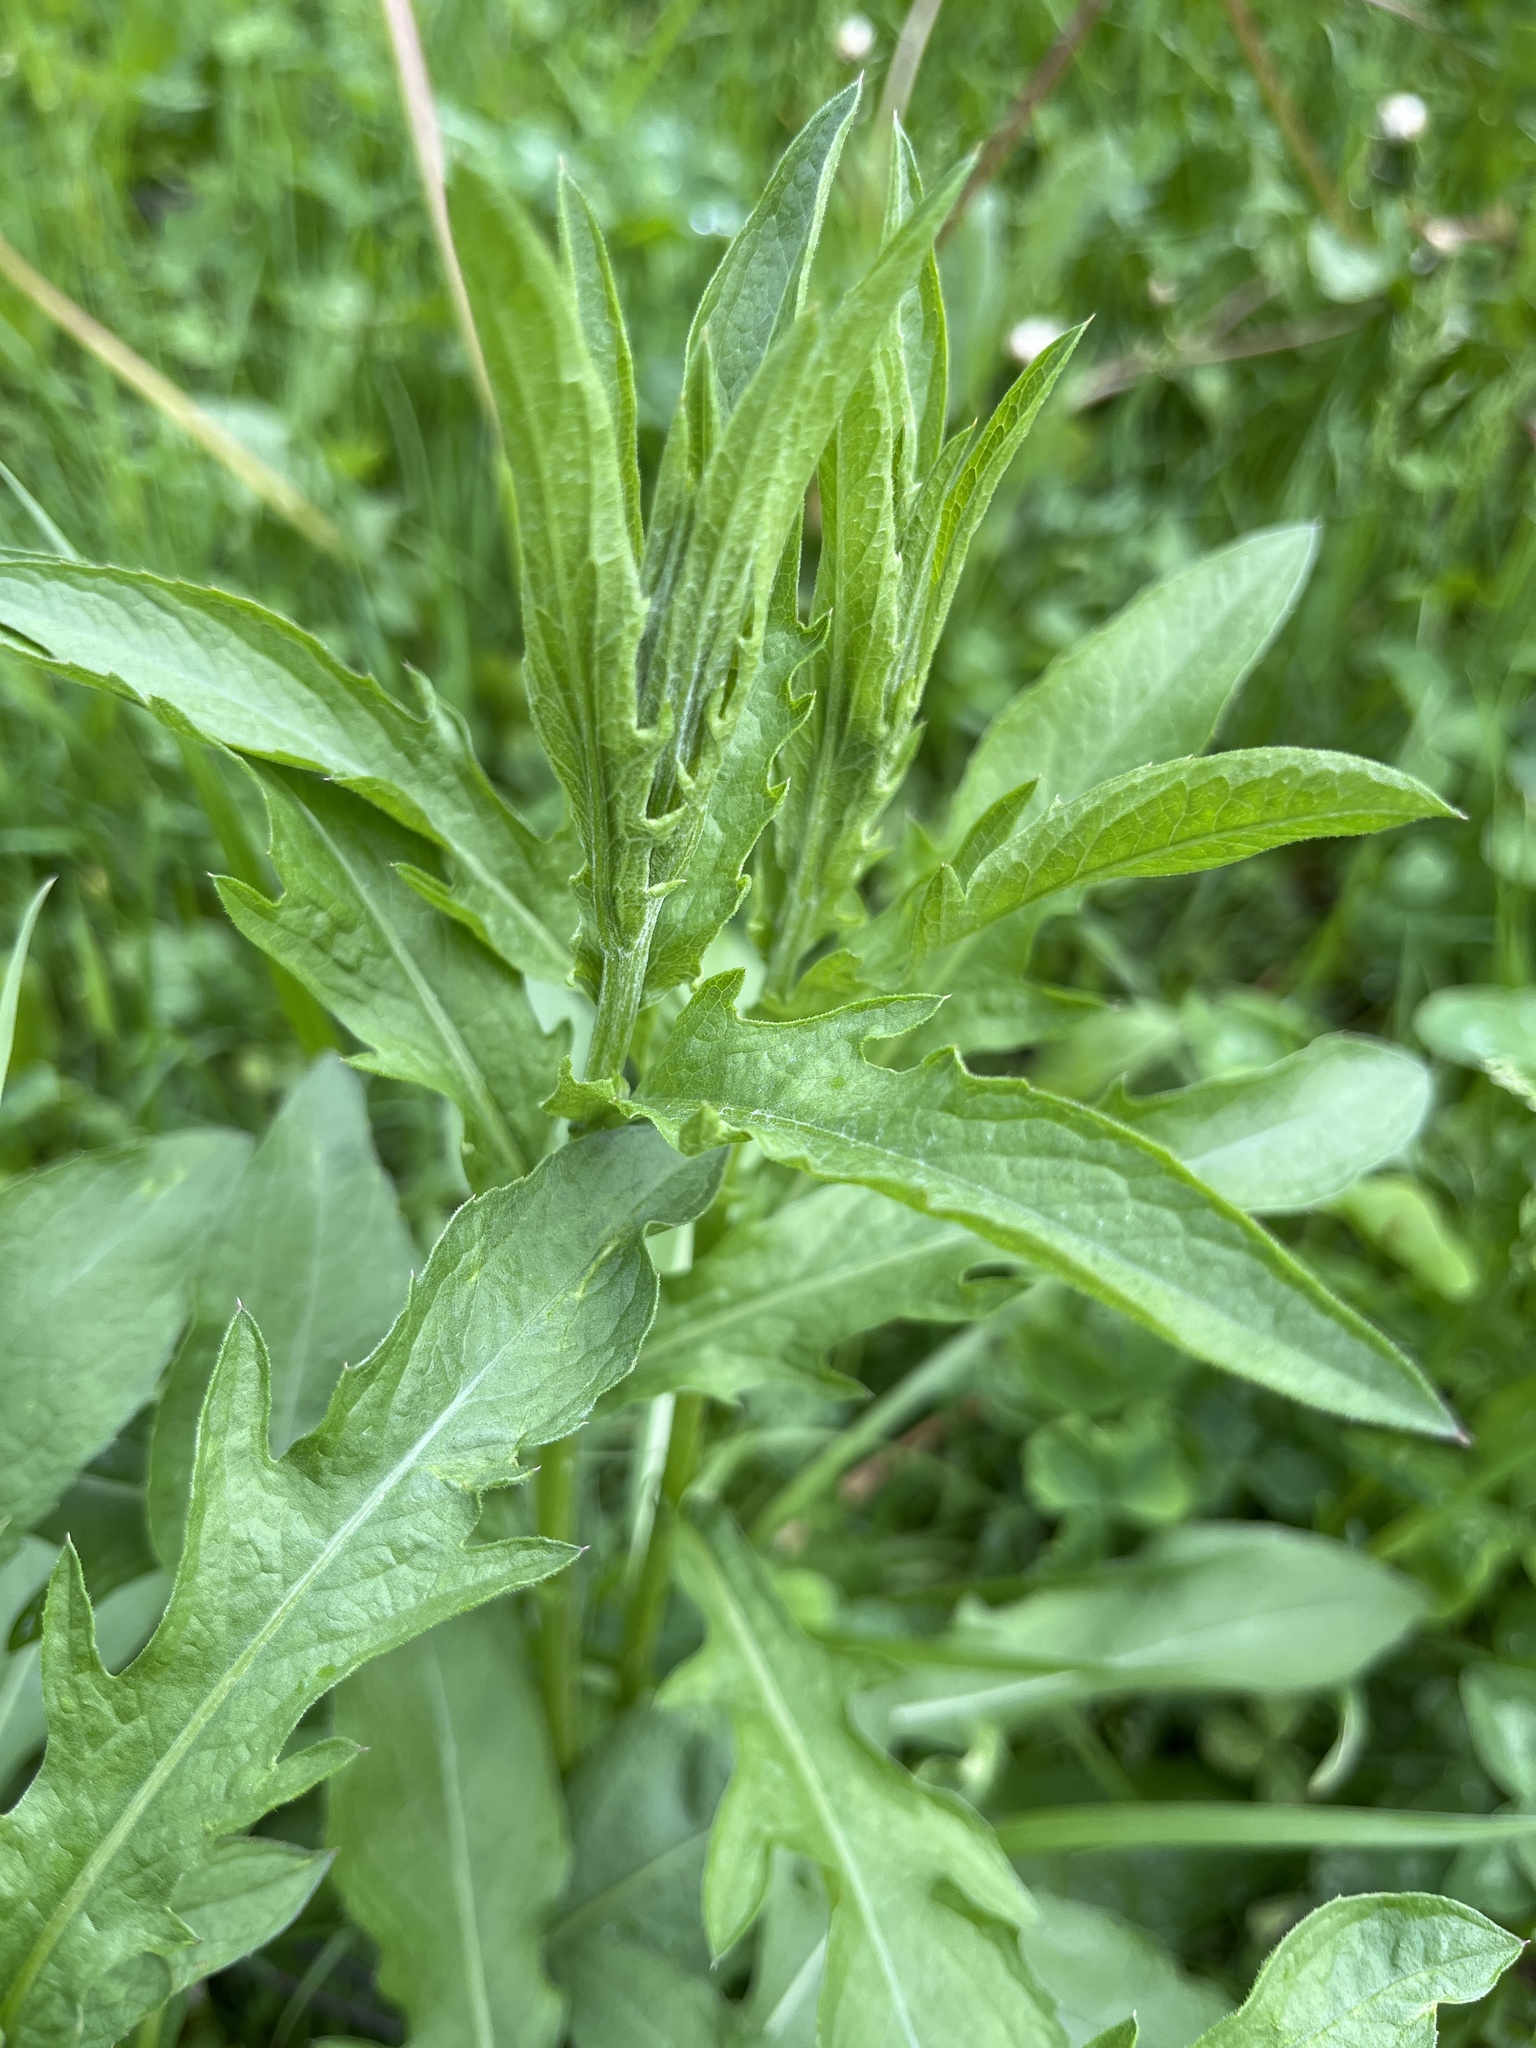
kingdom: Plantae
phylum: Tracheophyta
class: Magnoliopsida
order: Asterales
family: Asteraceae
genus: Centaurea
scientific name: Centaurea jacea
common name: Brown knapweed
